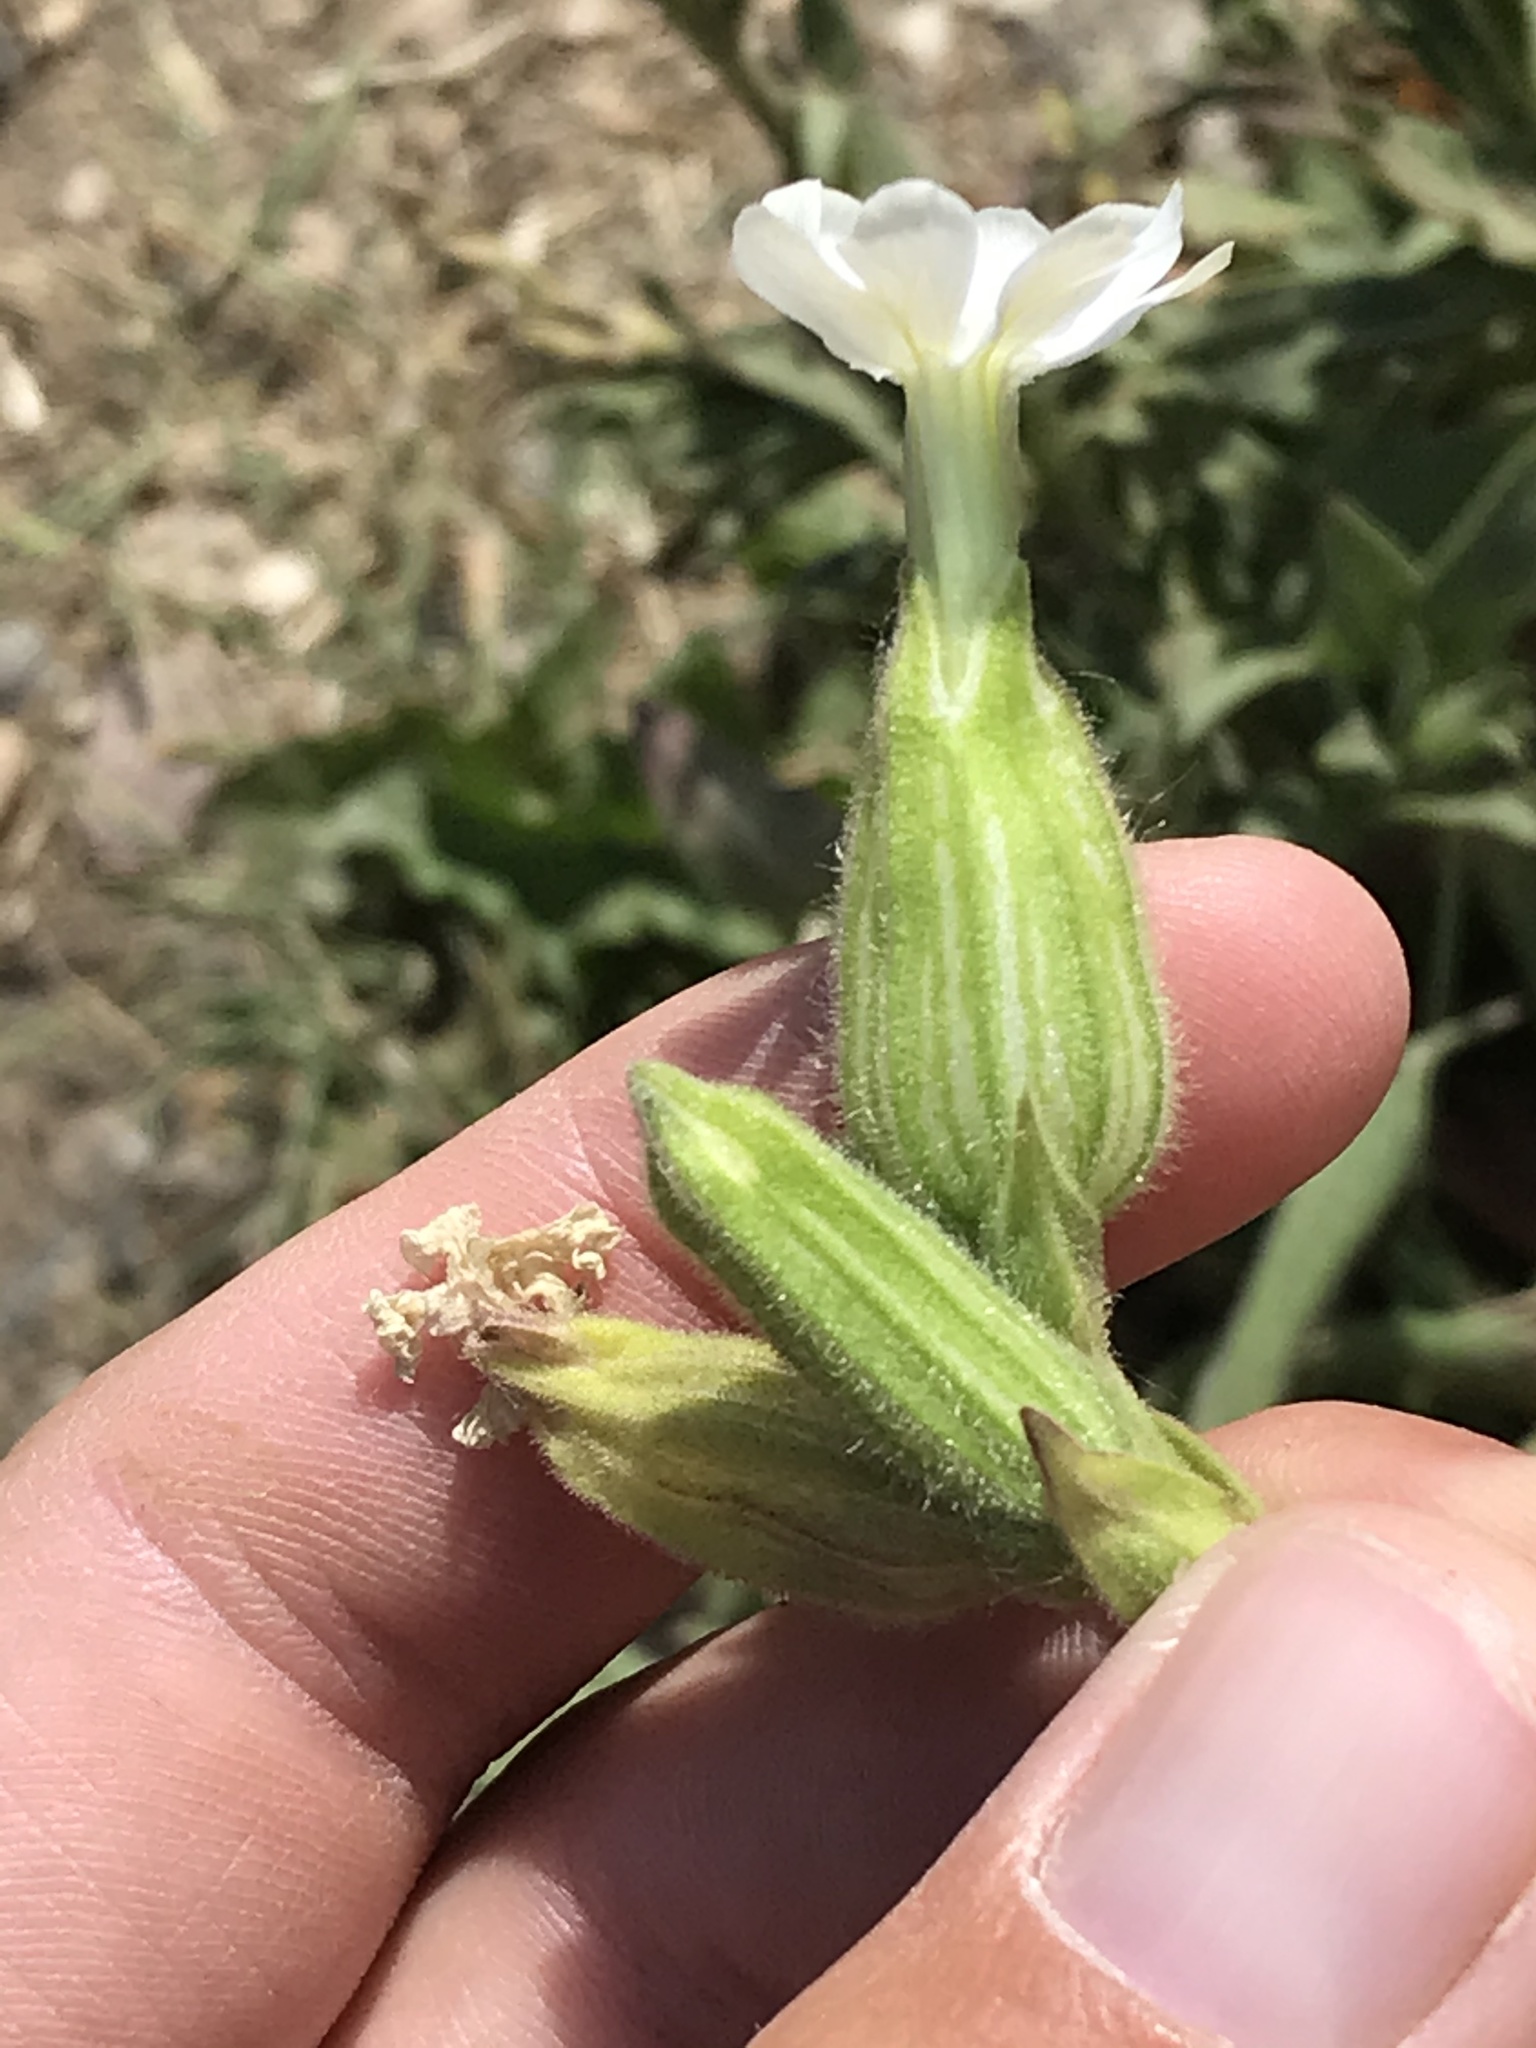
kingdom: Plantae
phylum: Tracheophyta
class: Magnoliopsida
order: Caryophyllales
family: Caryophyllaceae
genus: Silene
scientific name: Silene latifolia
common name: White campion
